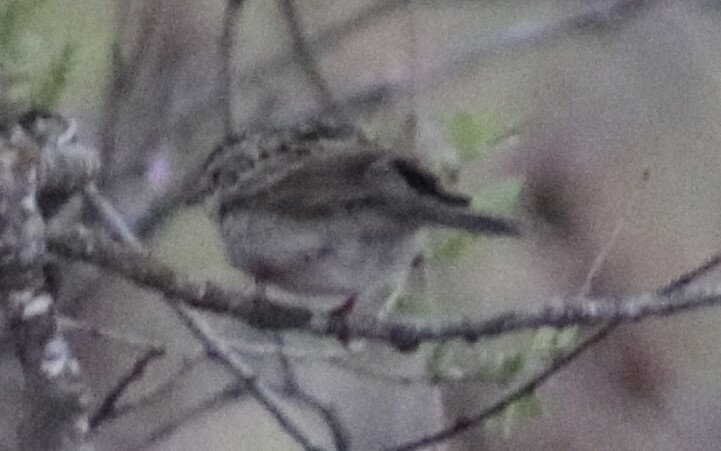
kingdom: Animalia
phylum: Chordata
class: Aves
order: Passeriformes
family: Passerellidae
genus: Spizella
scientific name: Spizella pallida
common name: Clay-colored sparrow
